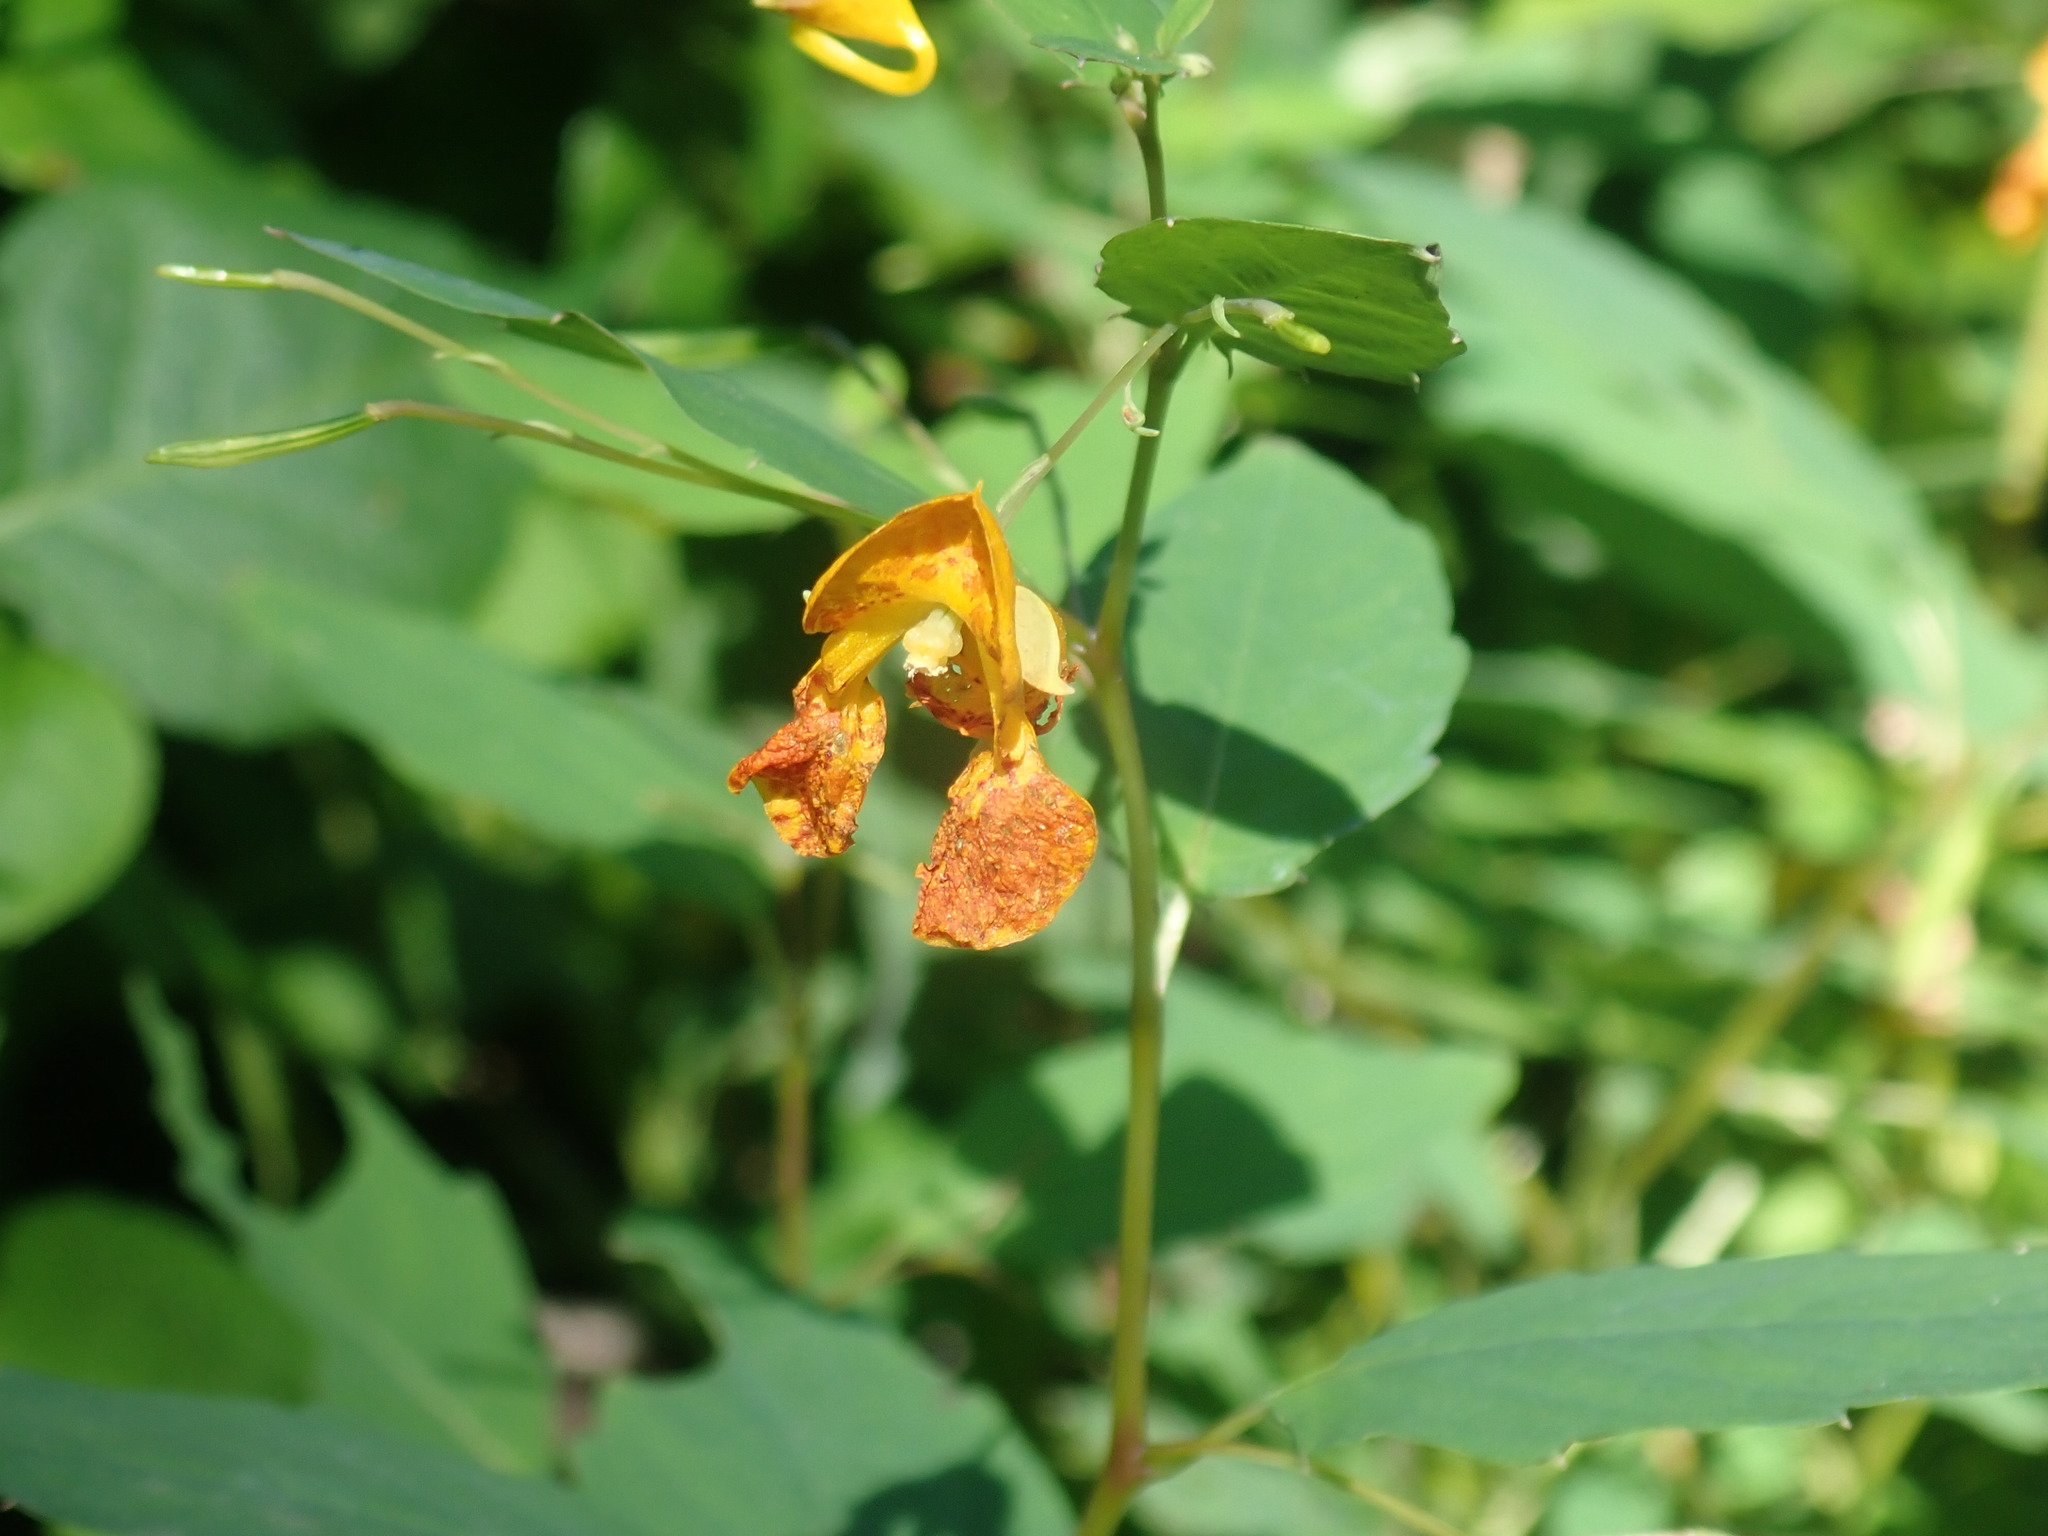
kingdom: Plantae
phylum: Tracheophyta
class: Magnoliopsida
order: Ericales
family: Balsaminaceae
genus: Impatiens
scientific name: Impatiens capensis
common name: Orange balsam
